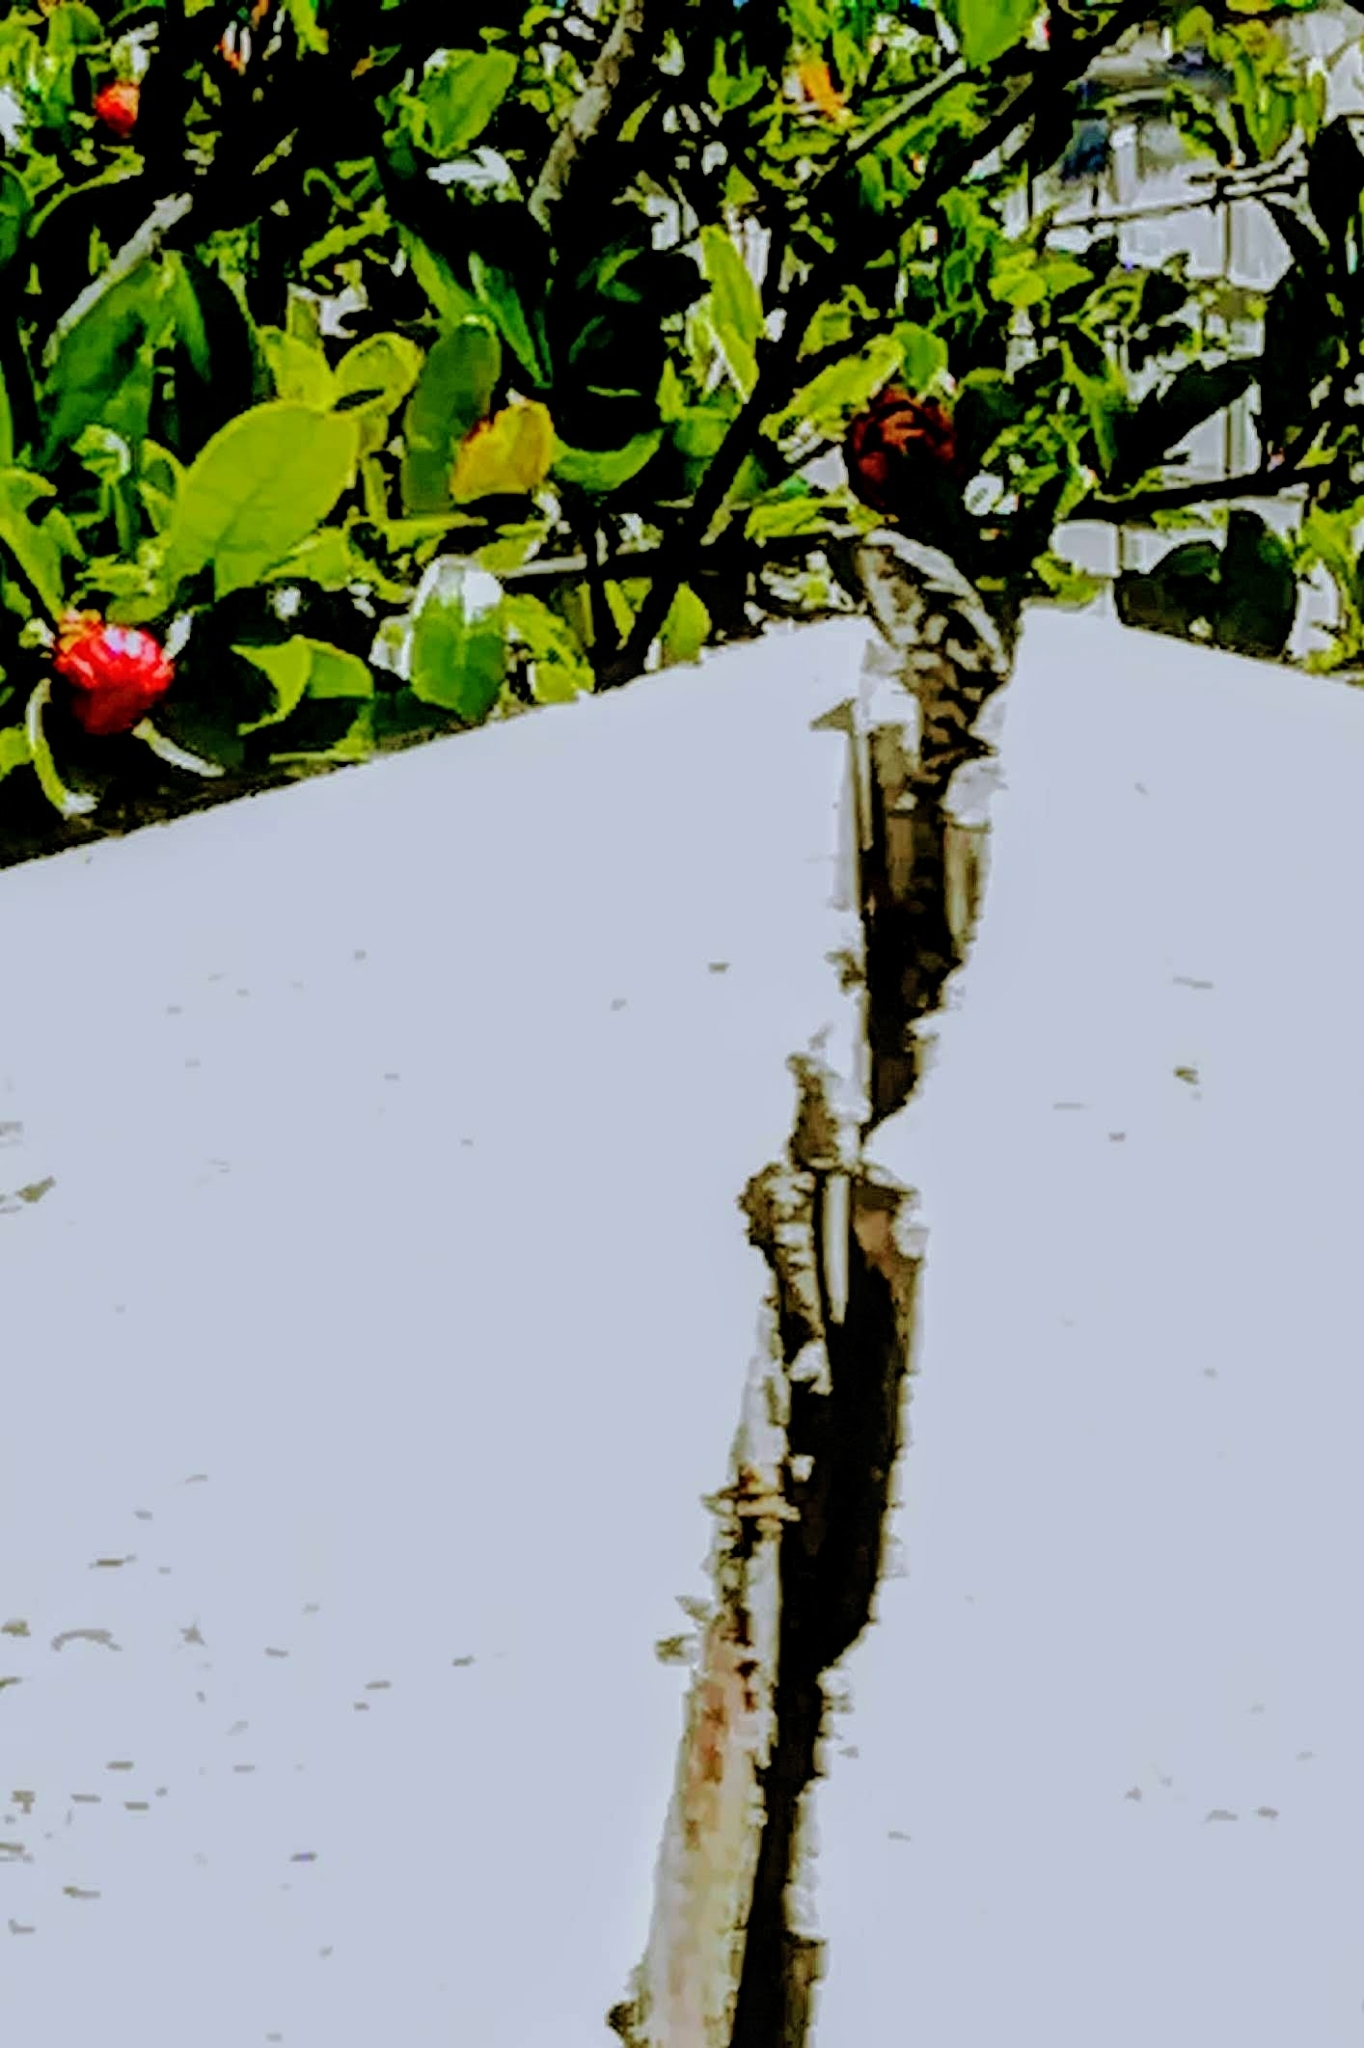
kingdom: Animalia
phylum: Chordata
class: Squamata
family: Lacertidae
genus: Podarcis
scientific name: Podarcis muralis
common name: Common wall lizard
